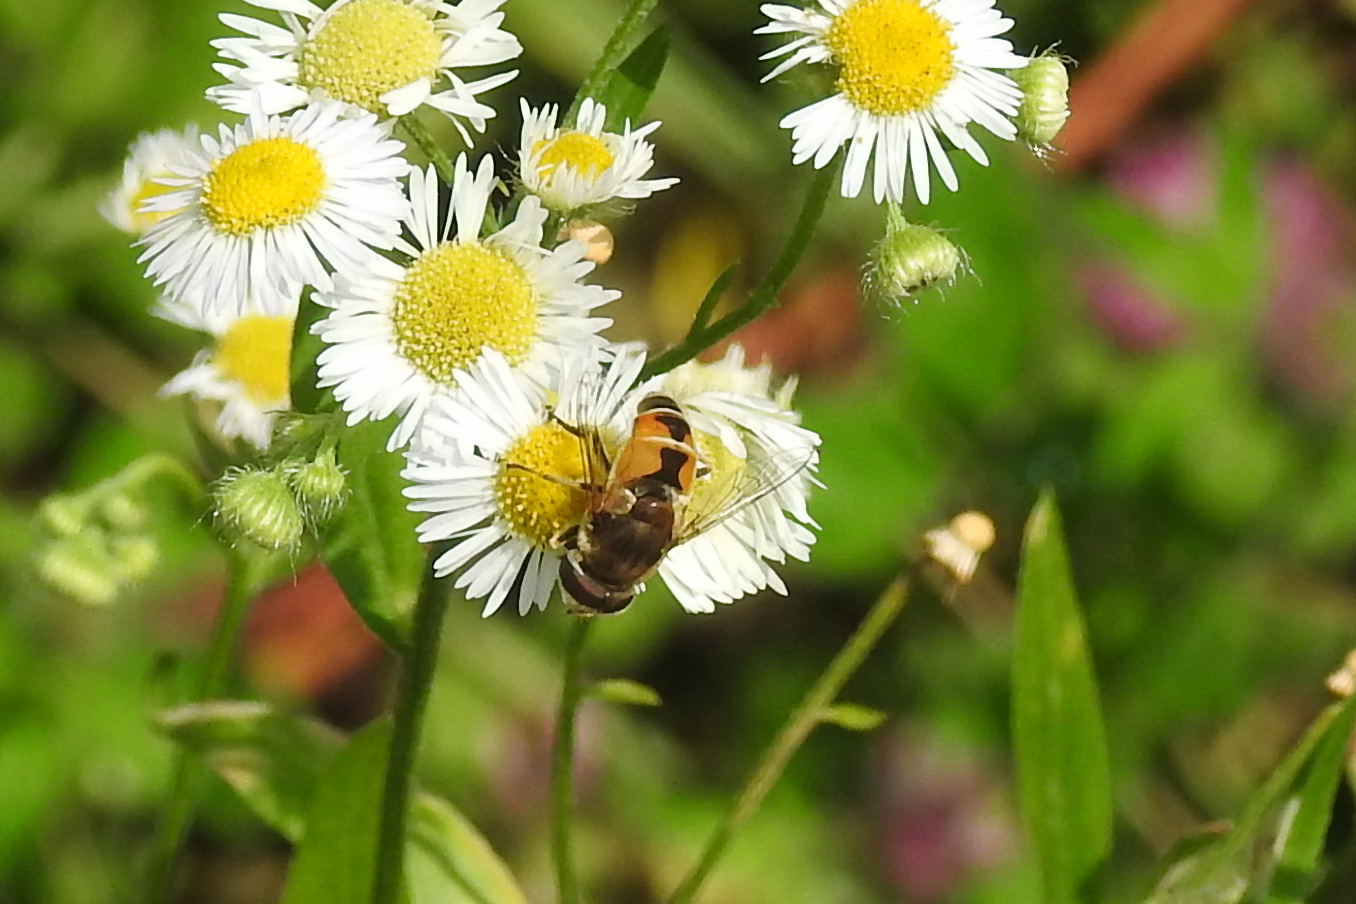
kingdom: Animalia
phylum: Arthropoda
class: Insecta
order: Diptera
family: Syrphidae
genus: Eristalis
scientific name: Eristalis arbustorum
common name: Hover fly
